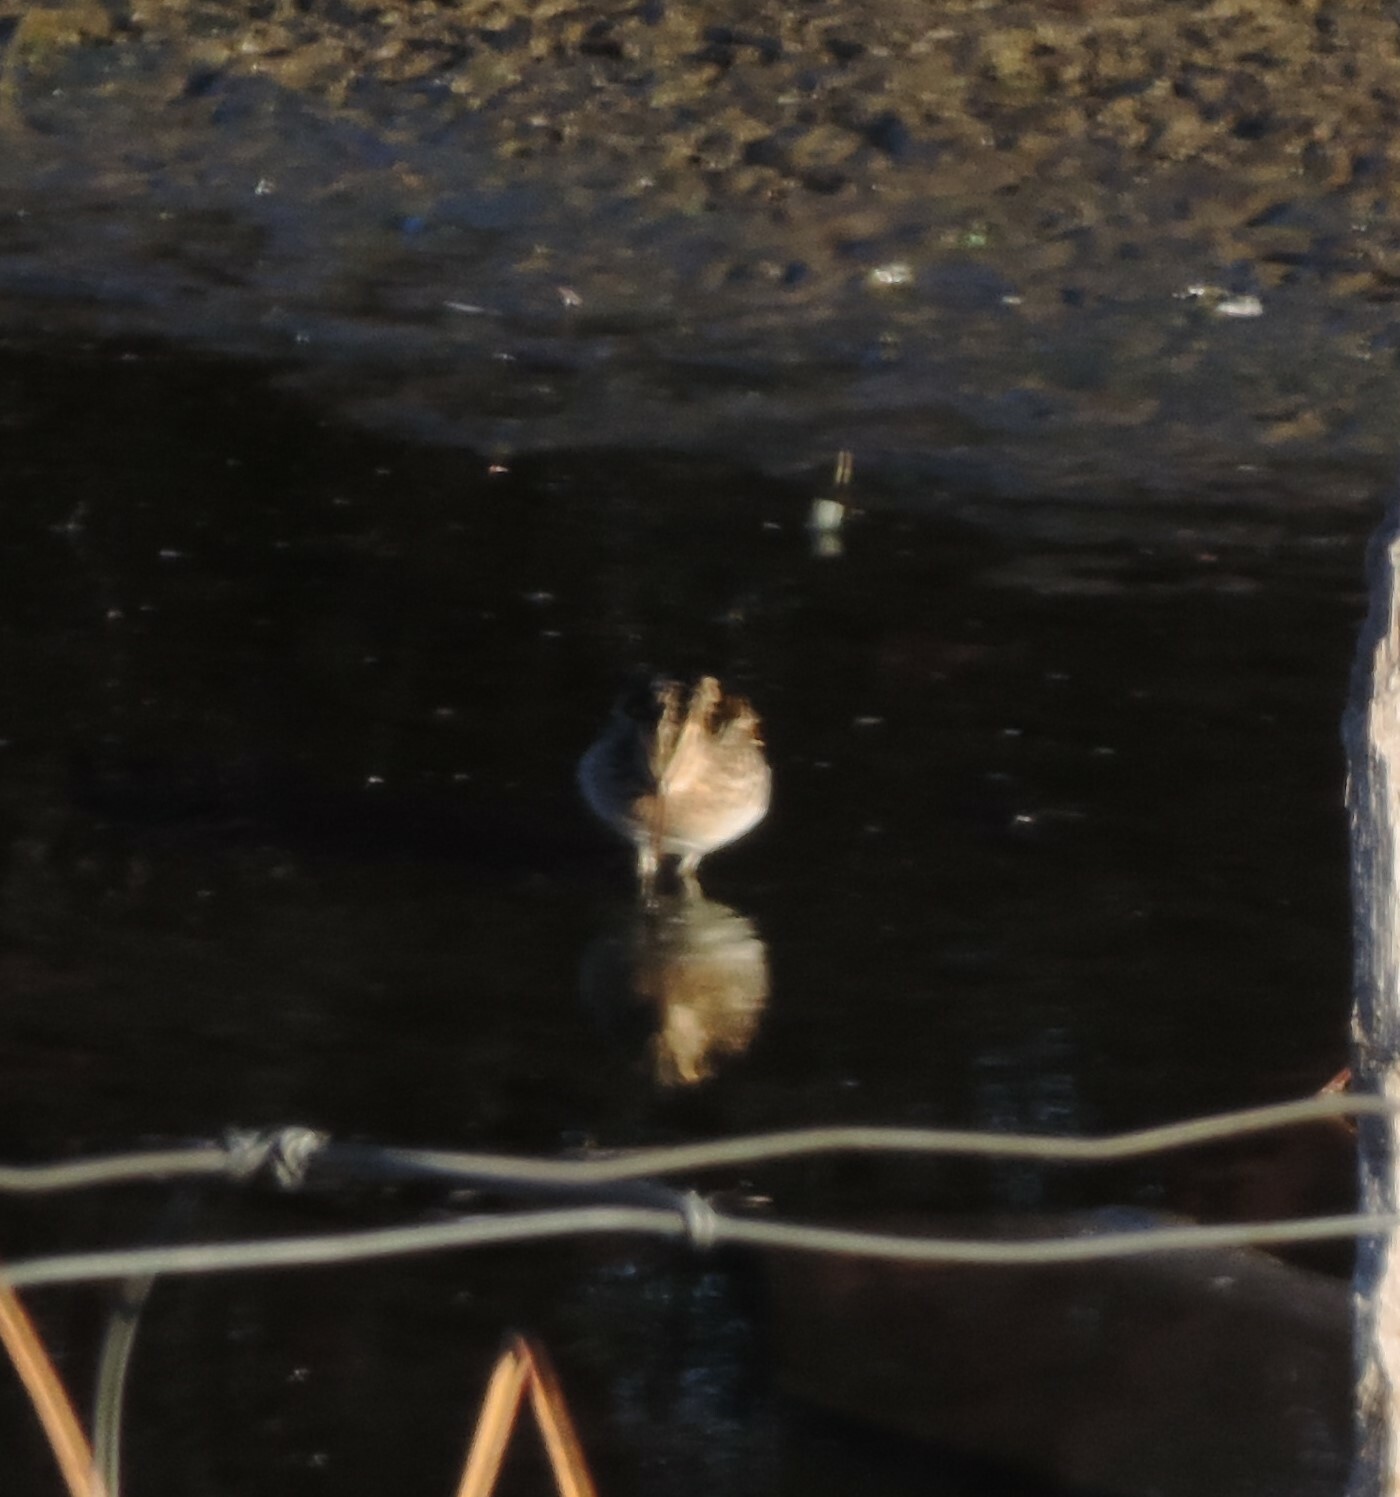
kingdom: Animalia
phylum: Chordata
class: Aves
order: Charadriiformes
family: Scolopacidae
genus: Gallinago
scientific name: Gallinago delicata
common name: Wilson's snipe
